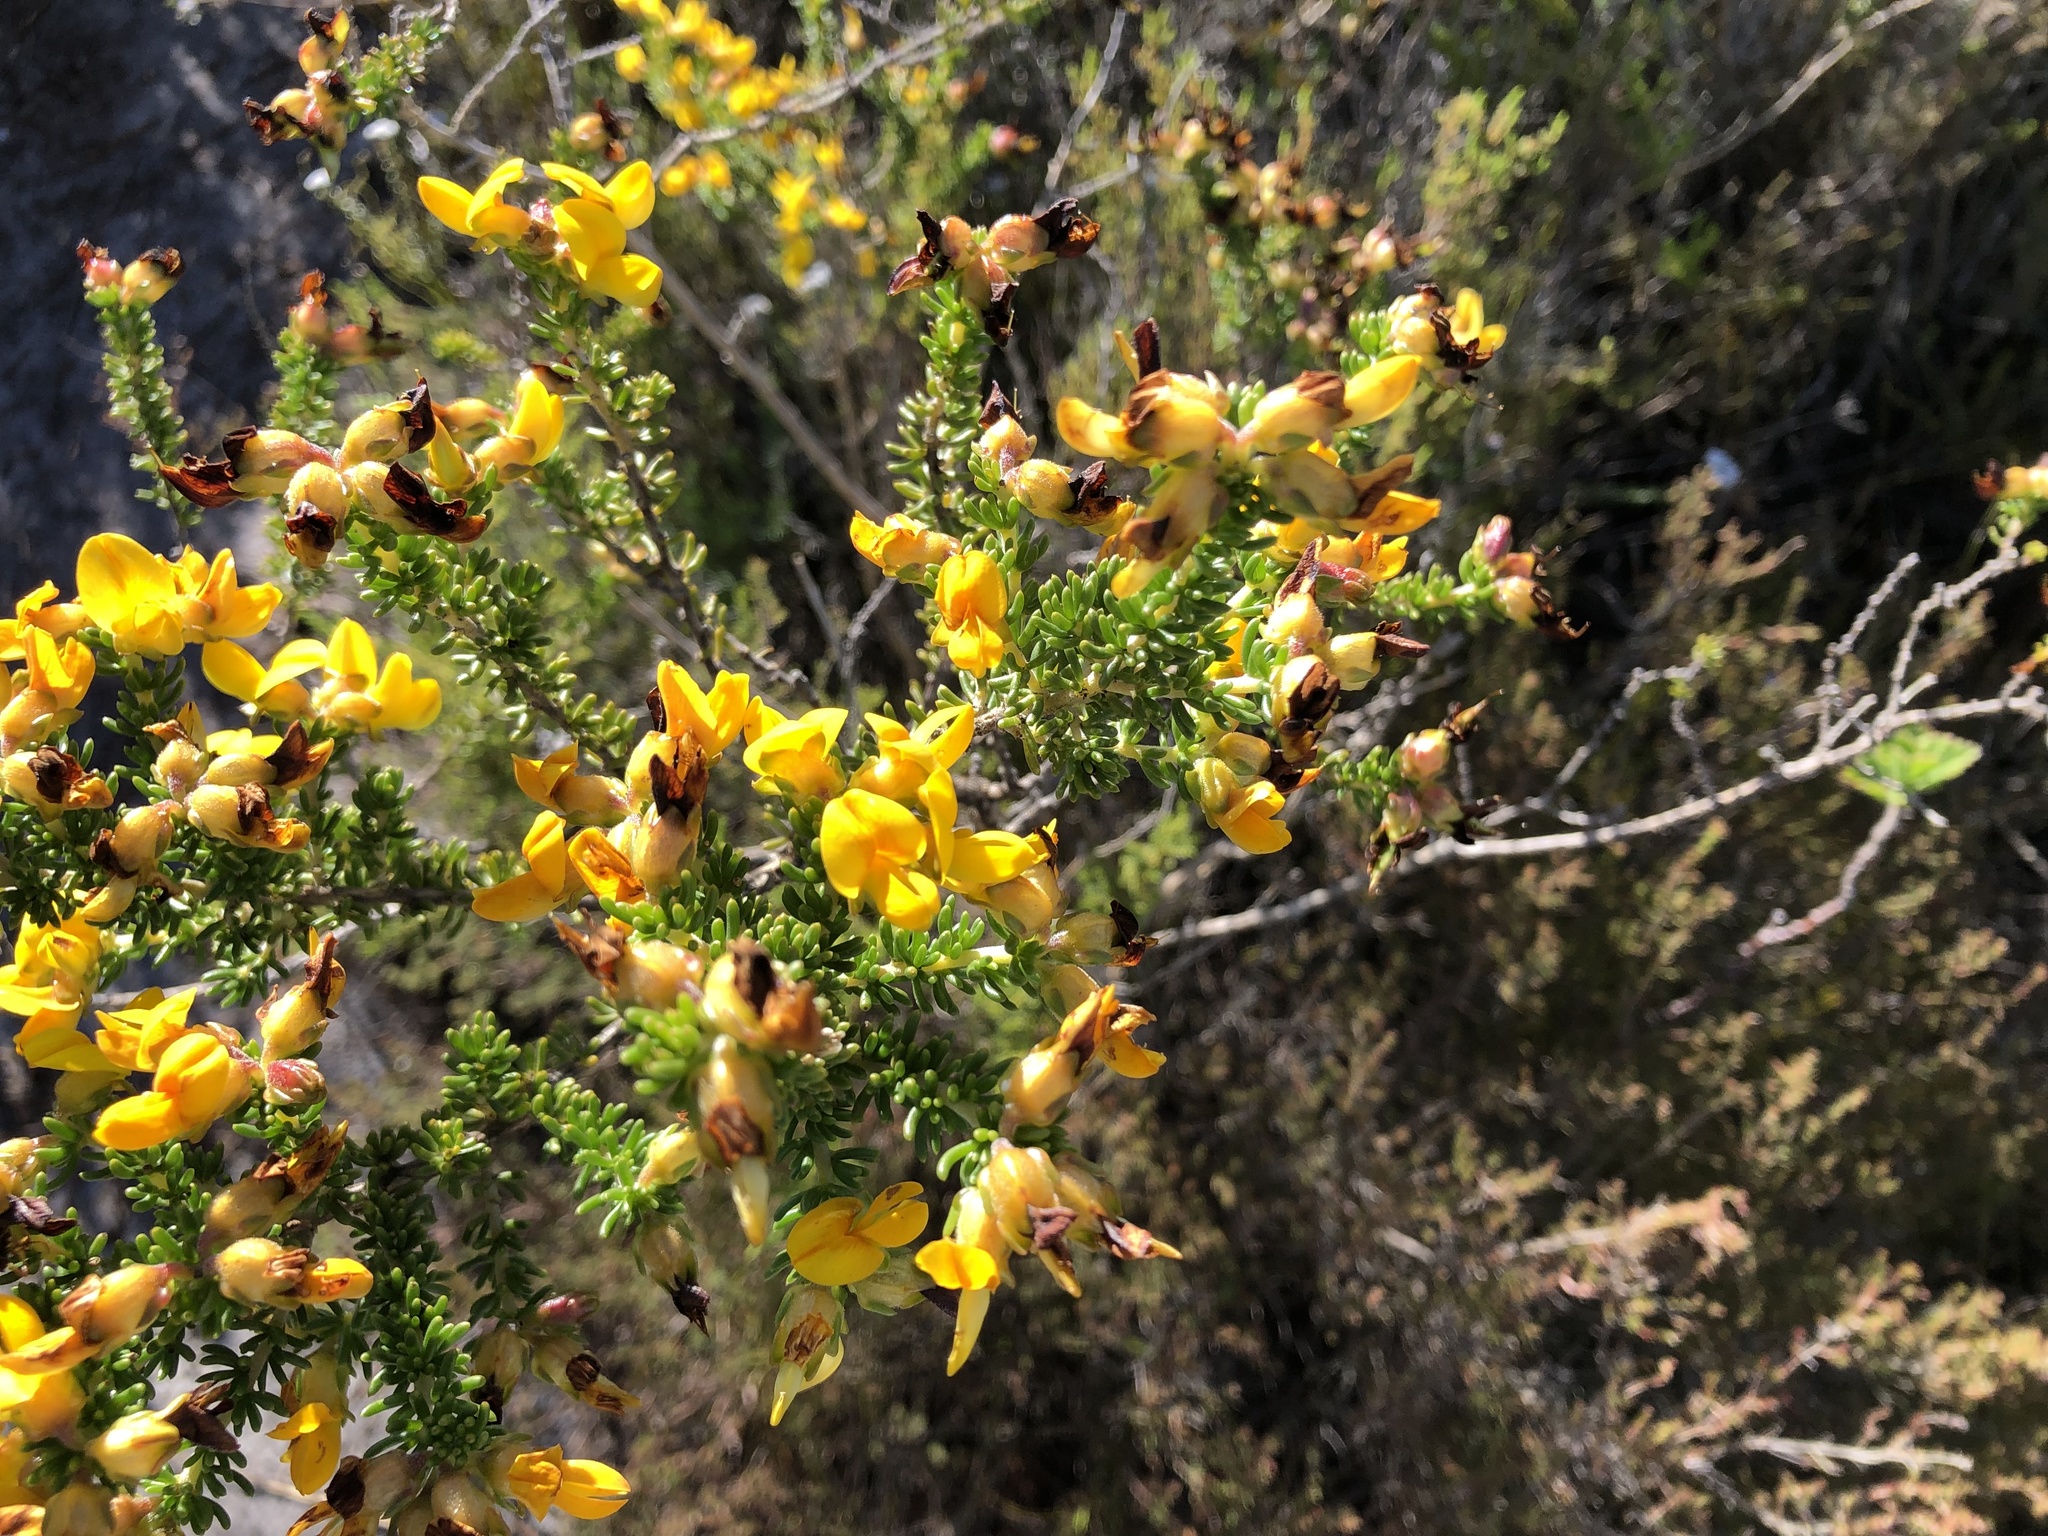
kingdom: Plantae
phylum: Tracheophyta
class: Magnoliopsida
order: Fabales
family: Fabaceae
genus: Aspalathus
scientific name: Aspalathus carnosa
